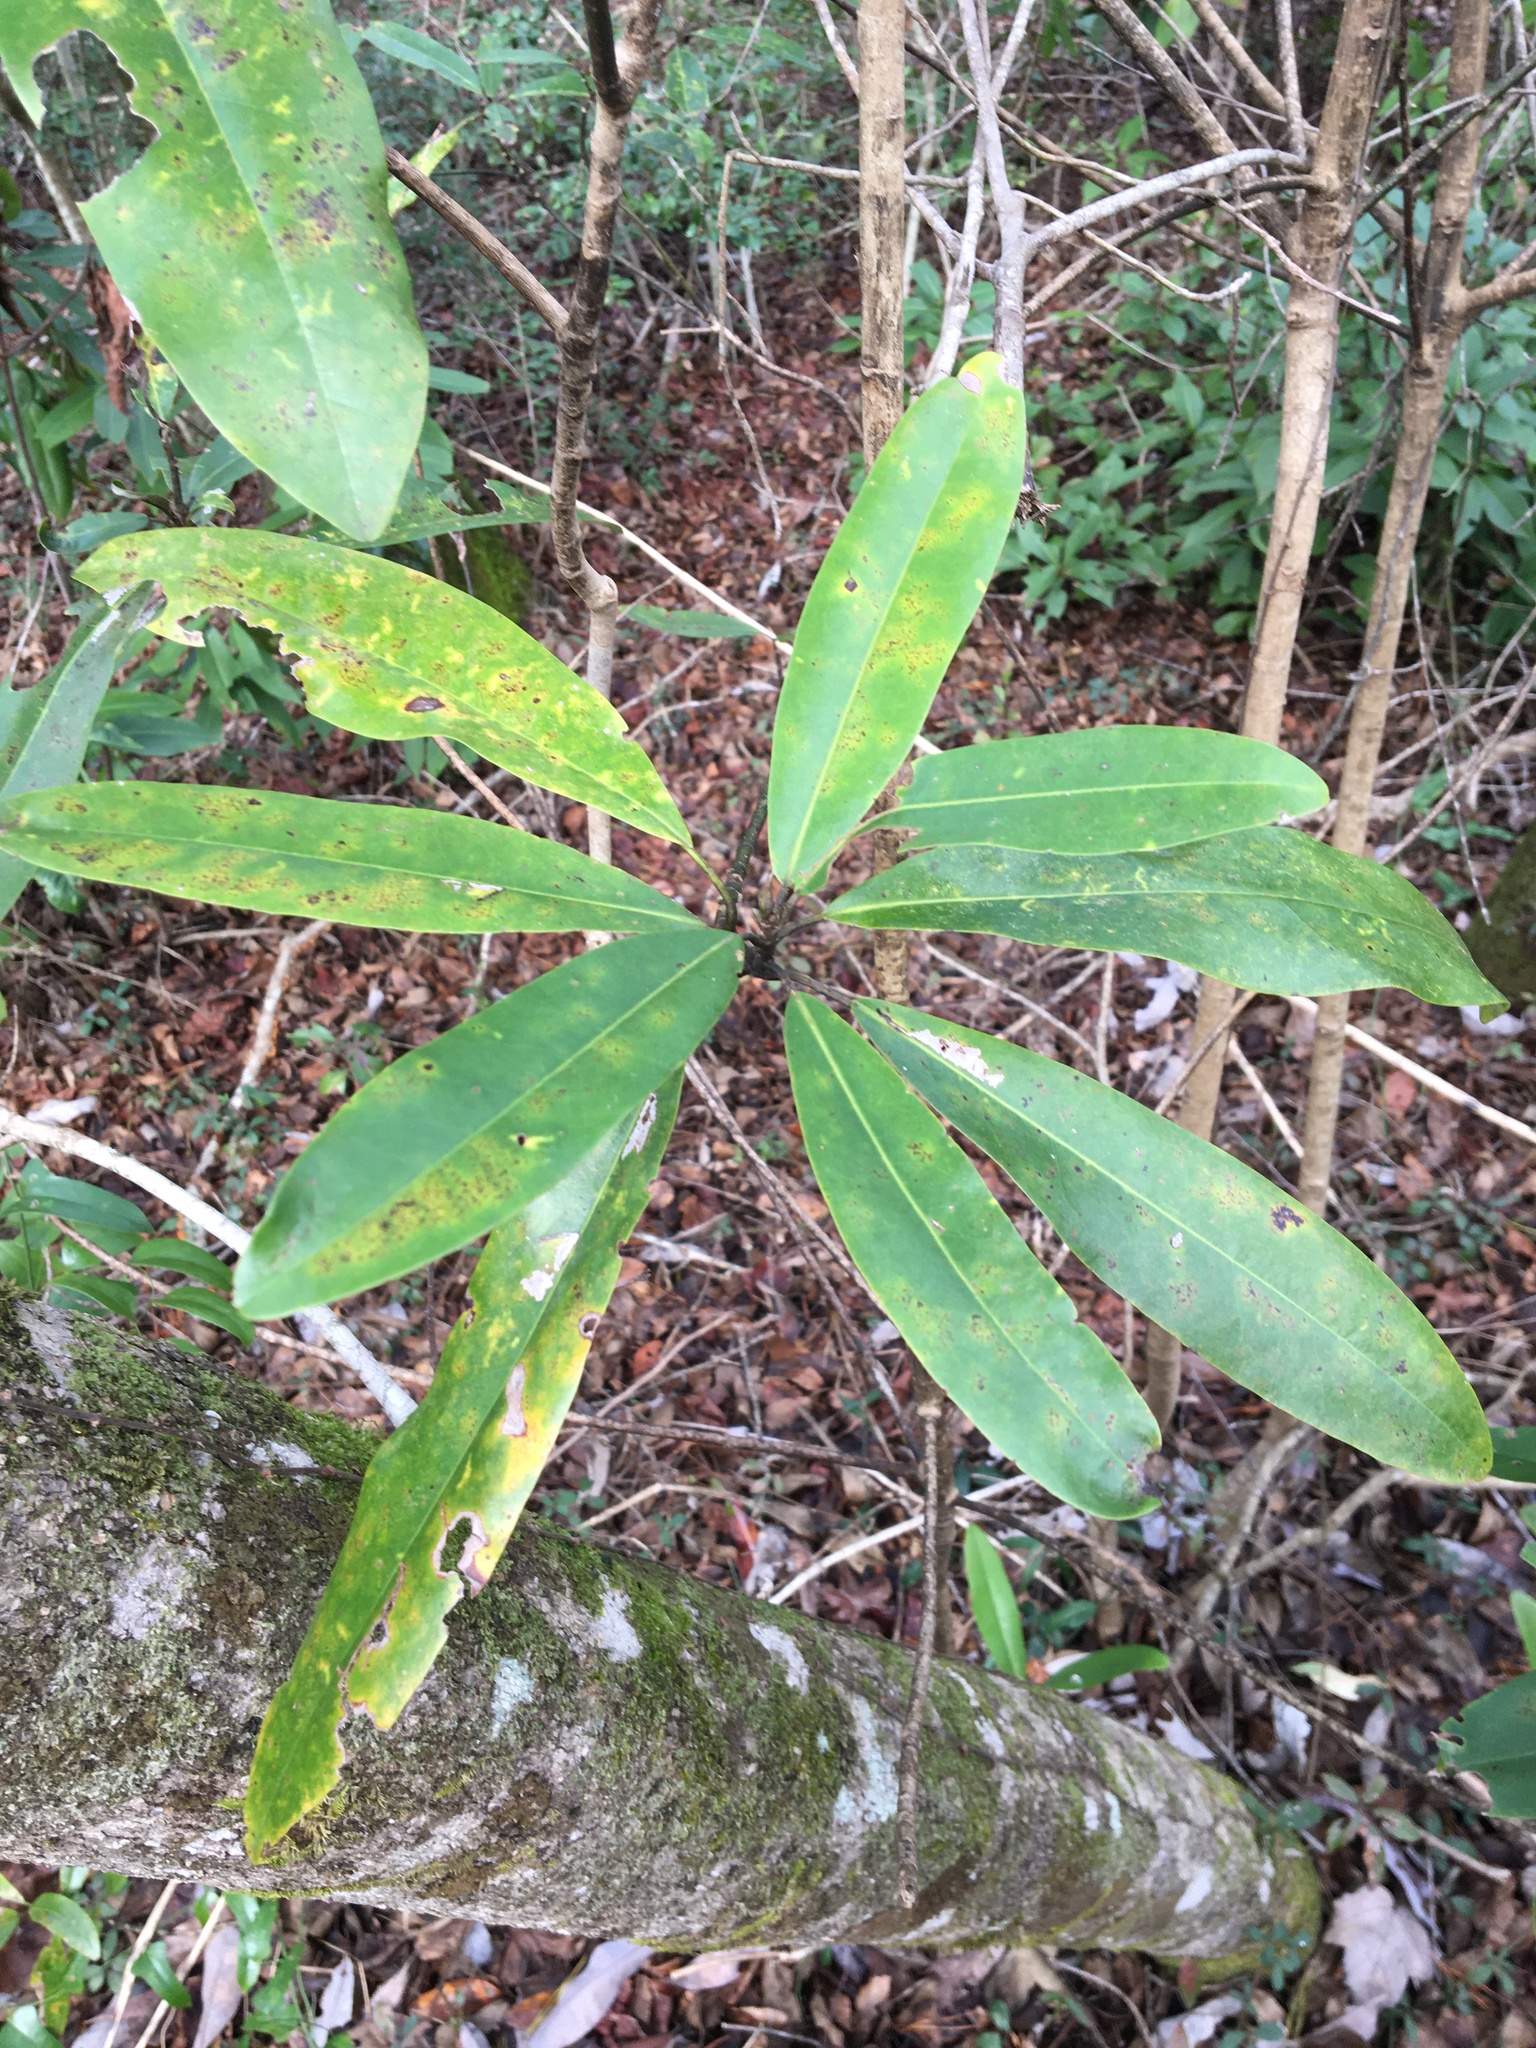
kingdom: Plantae
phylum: Tracheophyta
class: Magnoliopsida
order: Magnoliales
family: Magnoliaceae
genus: Magnolia
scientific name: Magnolia virginiana
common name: Swamp bay
